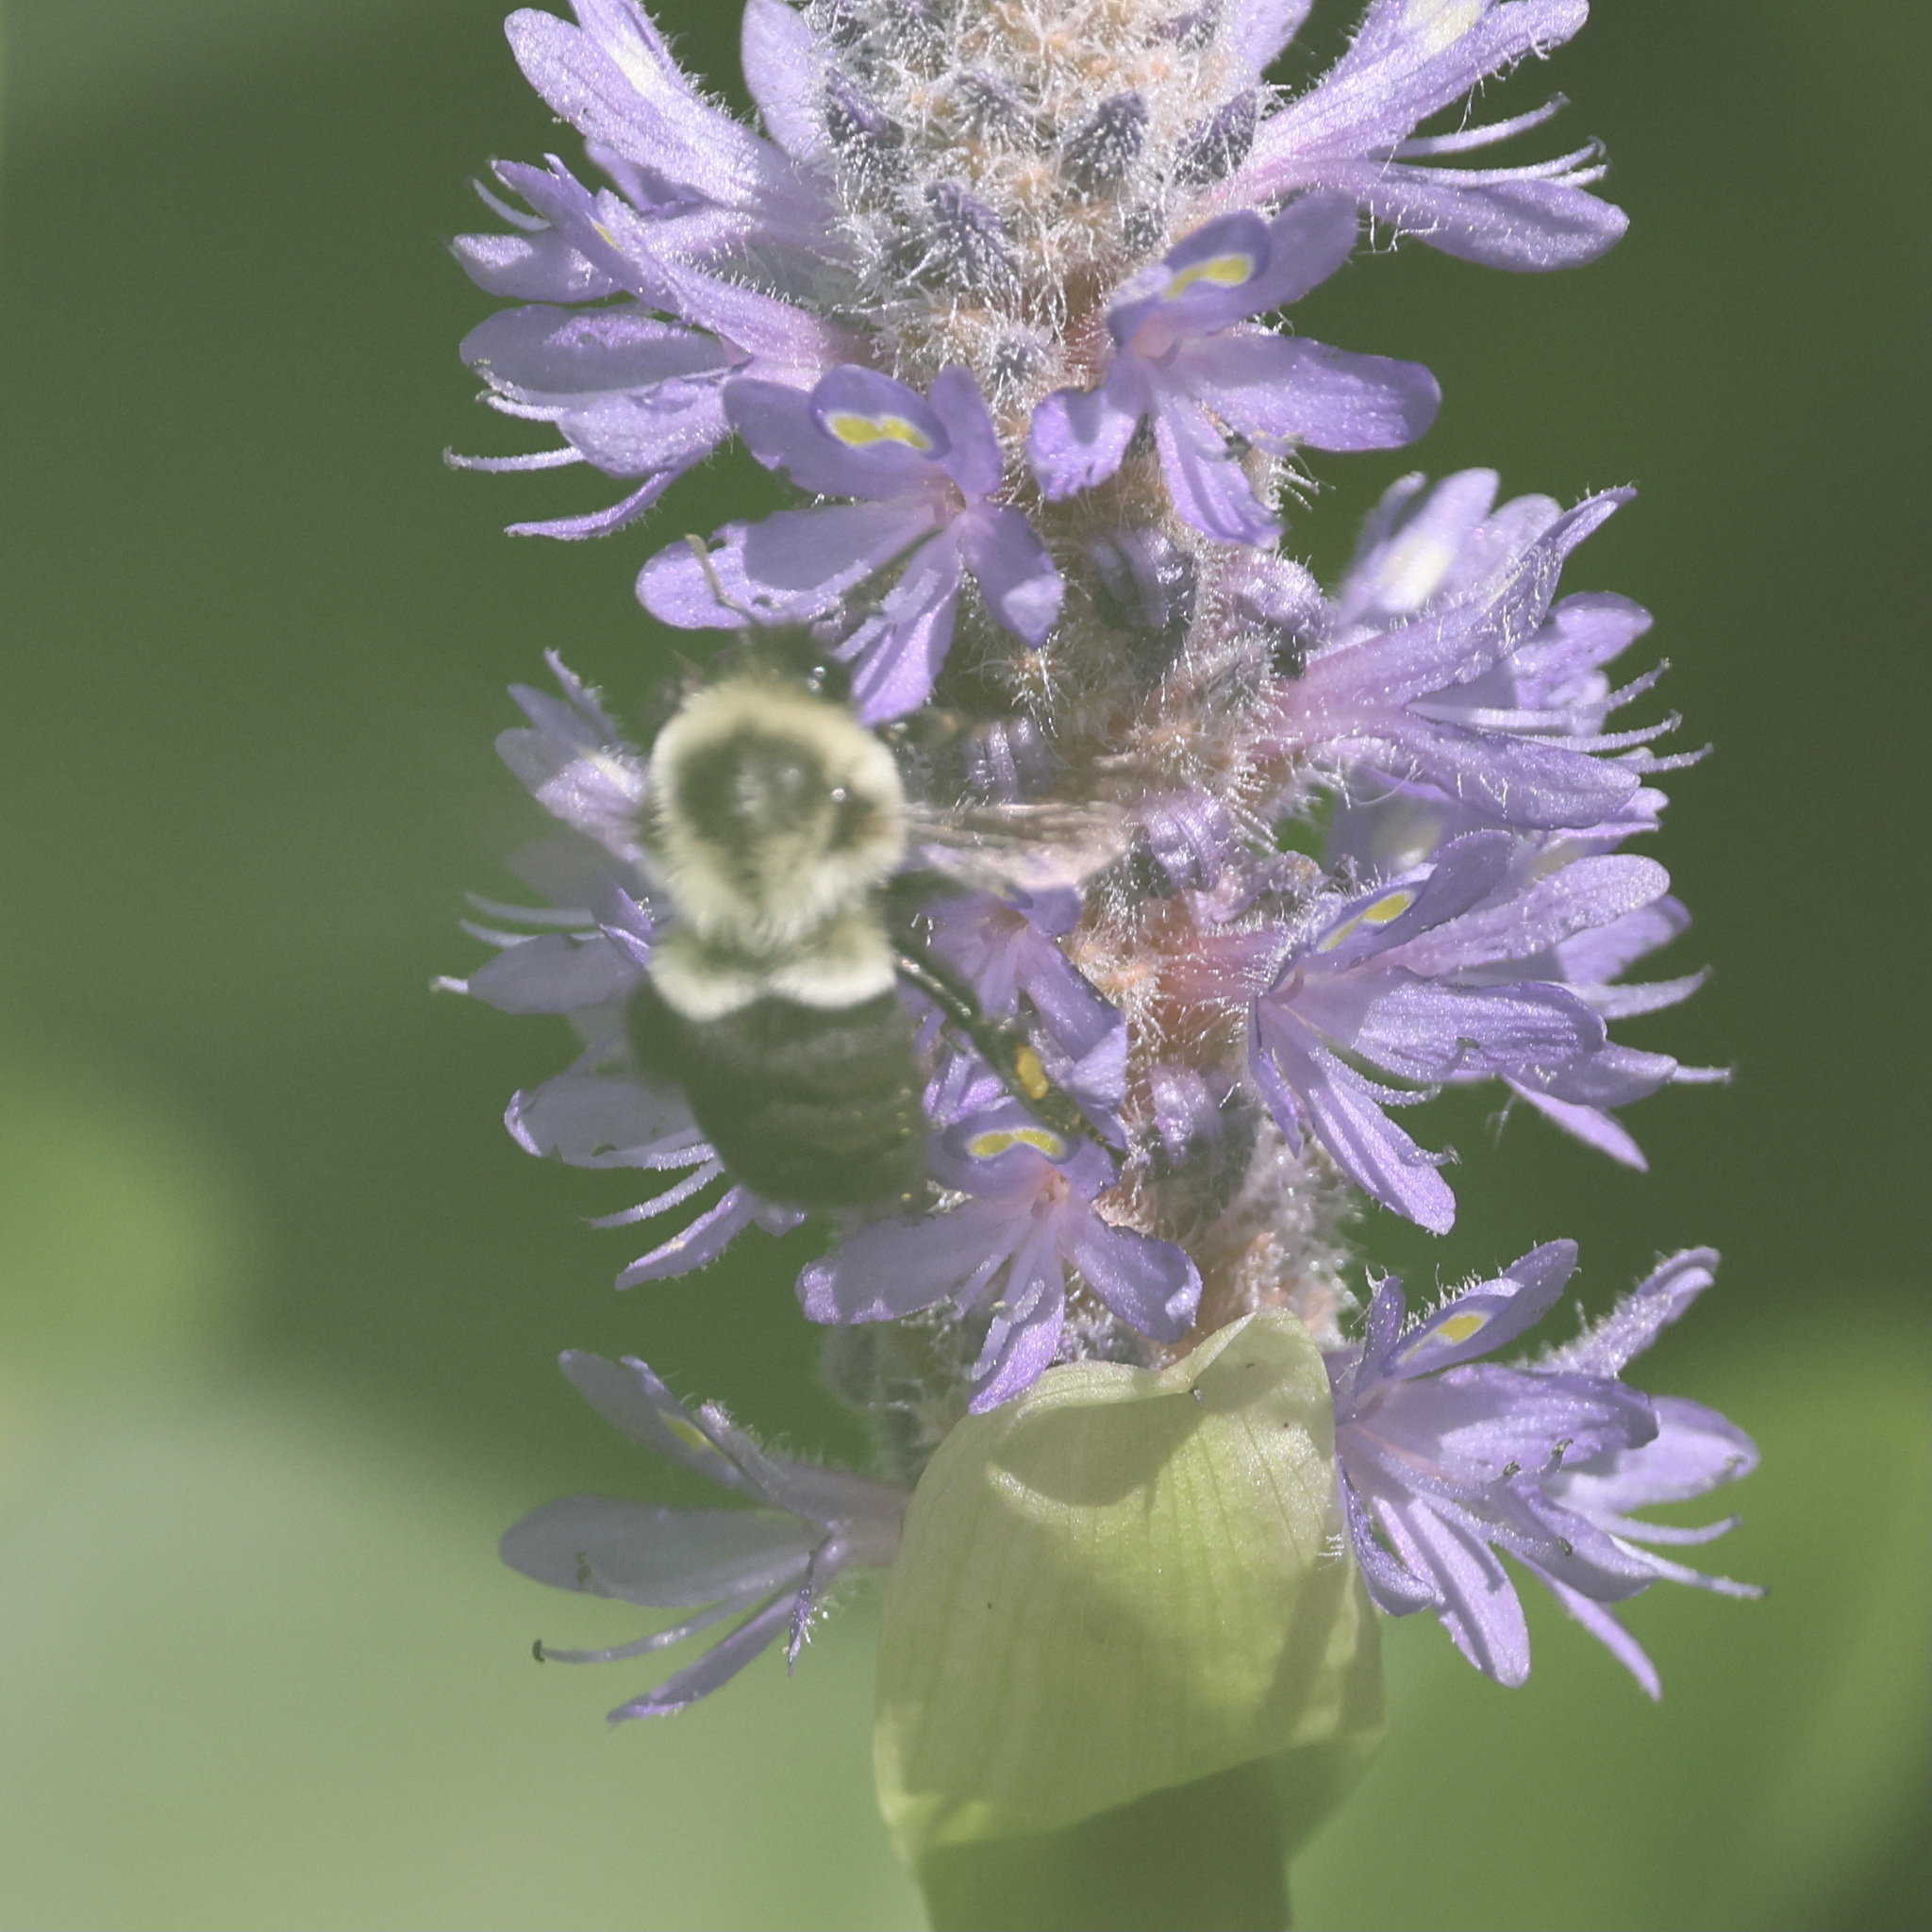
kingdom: Animalia
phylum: Arthropoda
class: Insecta
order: Hymenoptera
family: Apidae
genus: Bombus
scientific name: Bombus impatiens
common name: Common eastern bumble bee
